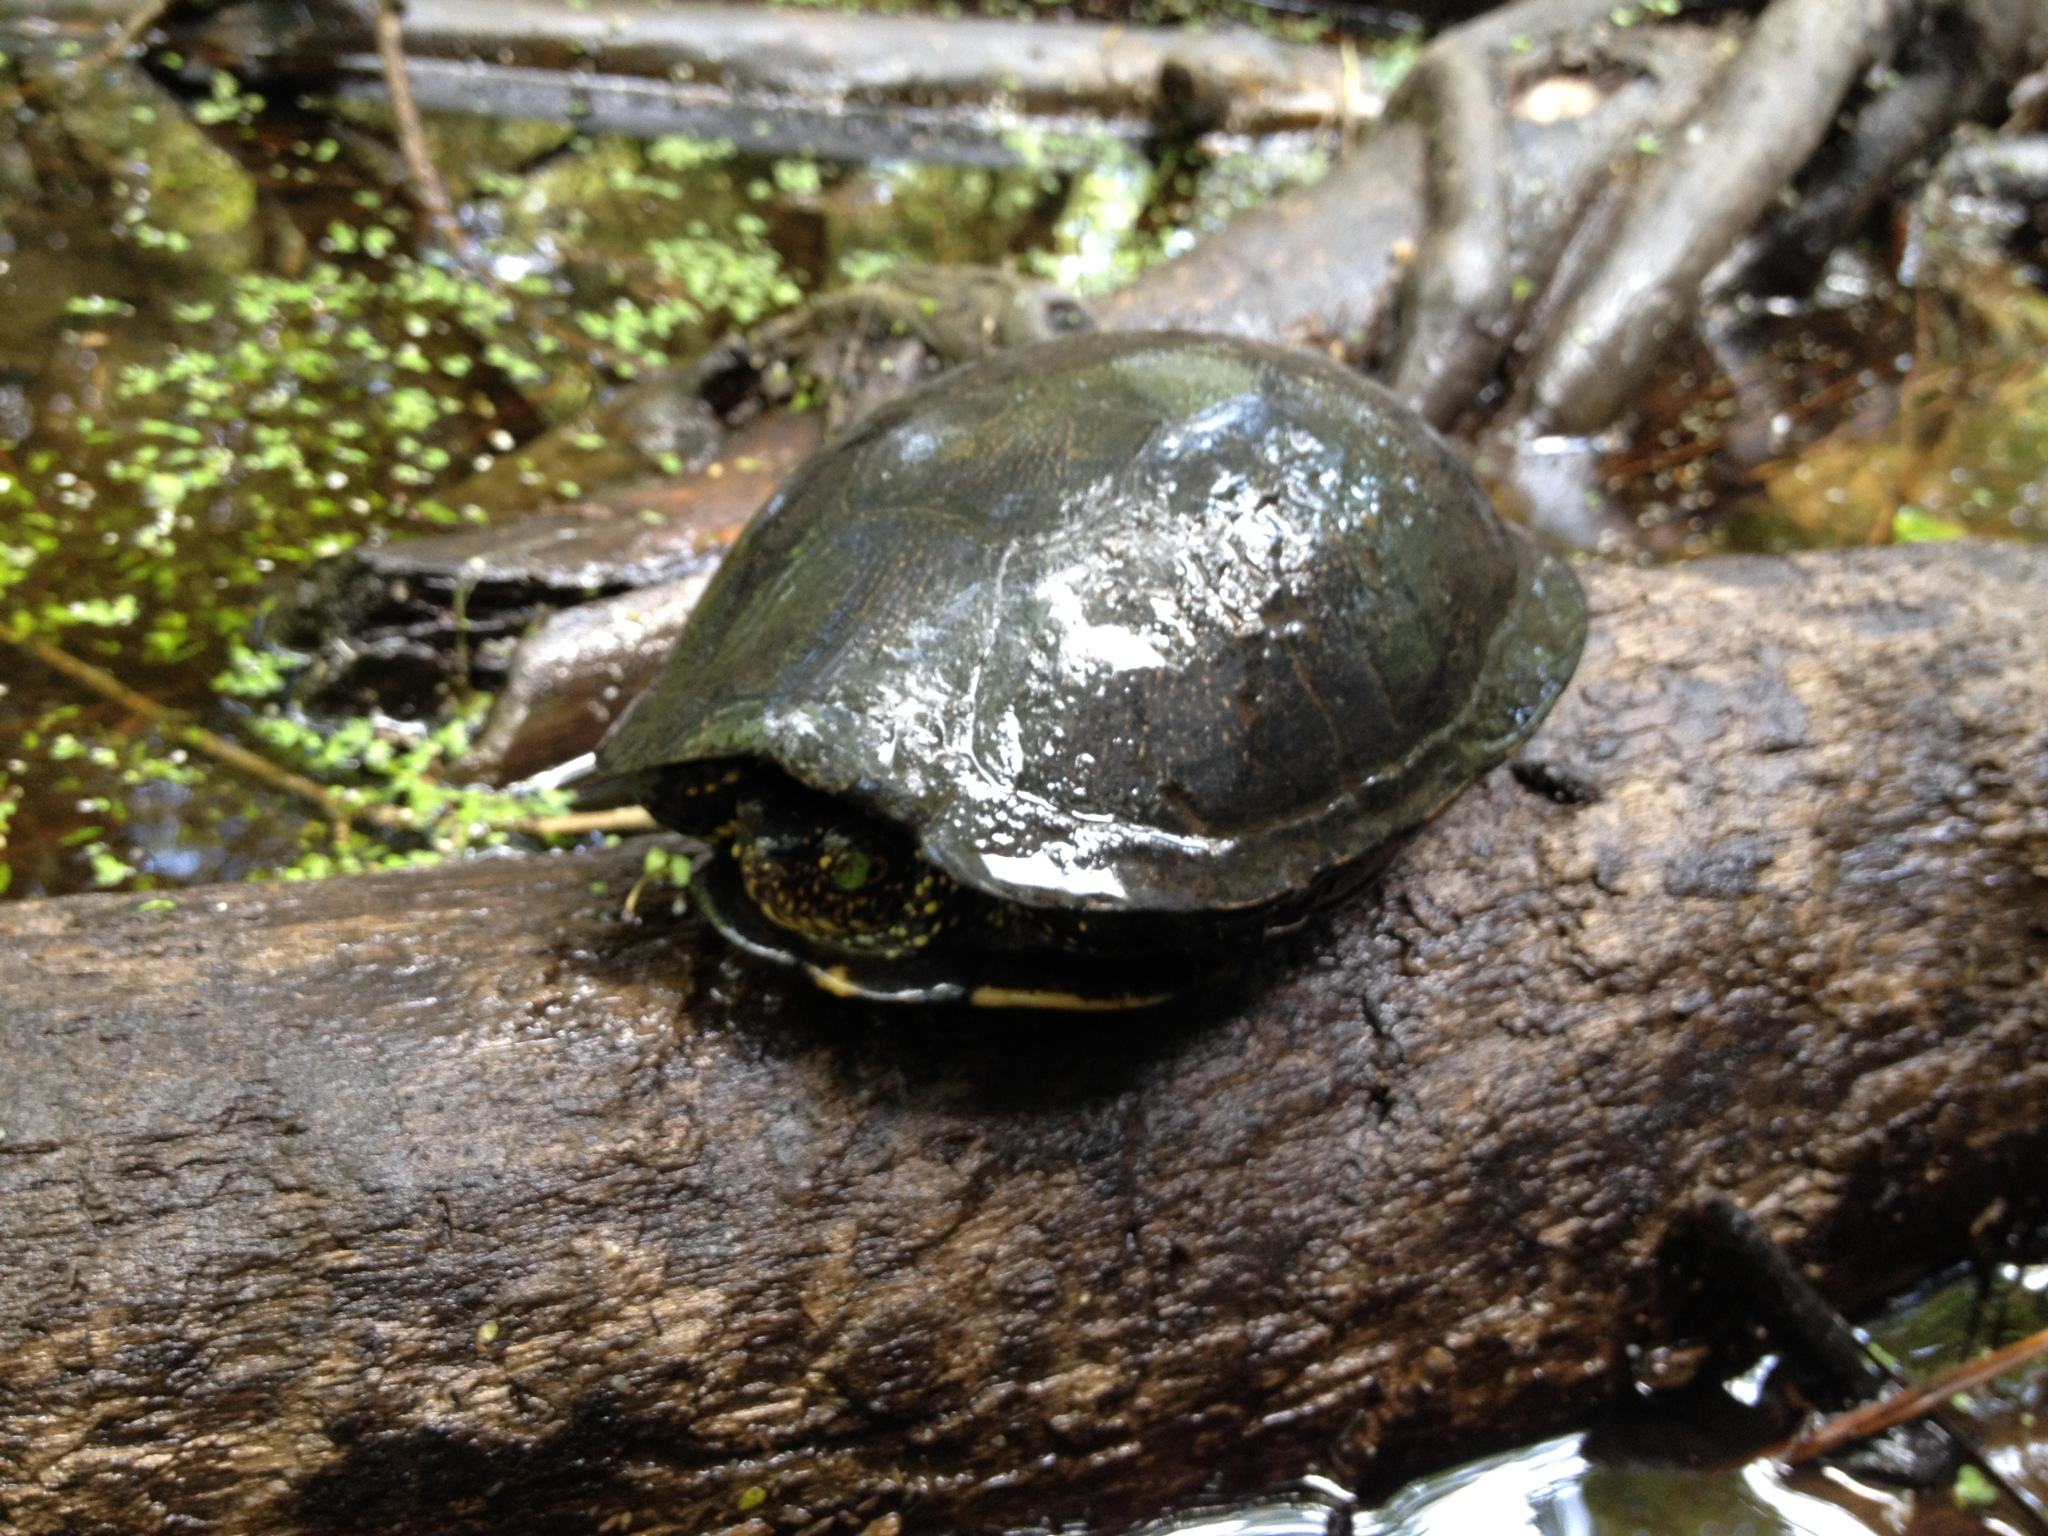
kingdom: Animalia
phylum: Chordata
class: Testudines
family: Emydidae
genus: Emys
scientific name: Emys orbicularis
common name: European pond turtle
